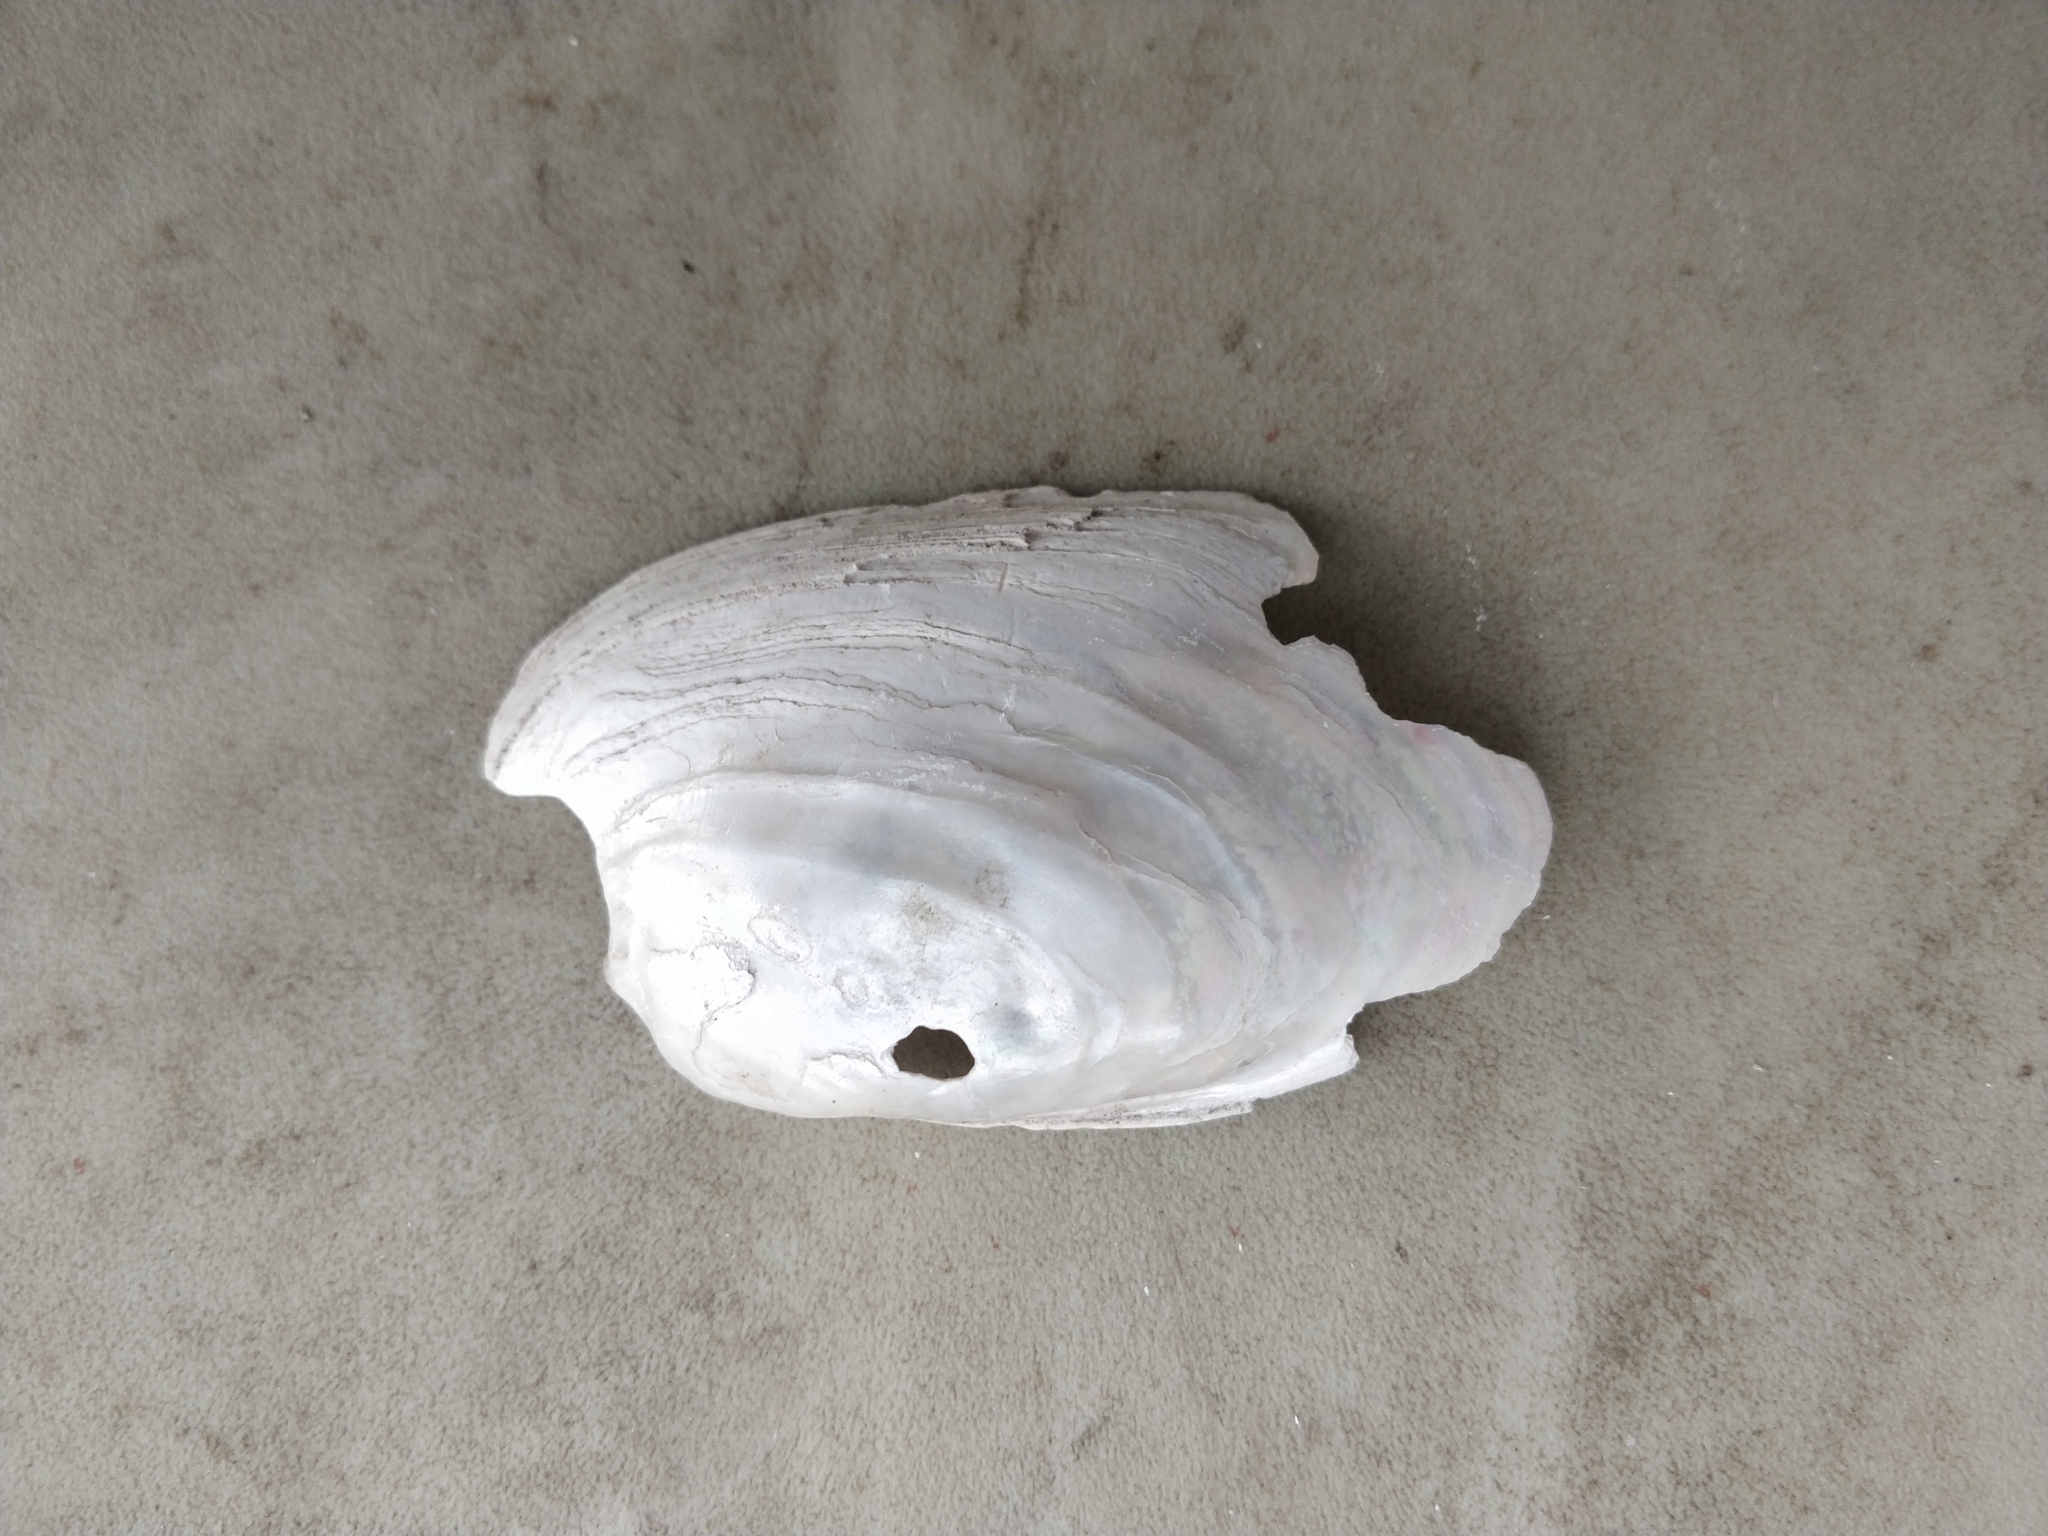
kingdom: Animalia
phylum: Mollusca
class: Bivalvia
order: Unionida
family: Unionidae
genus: Lampsilis
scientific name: Lampsilis siliquoidea
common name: Fatmucket
